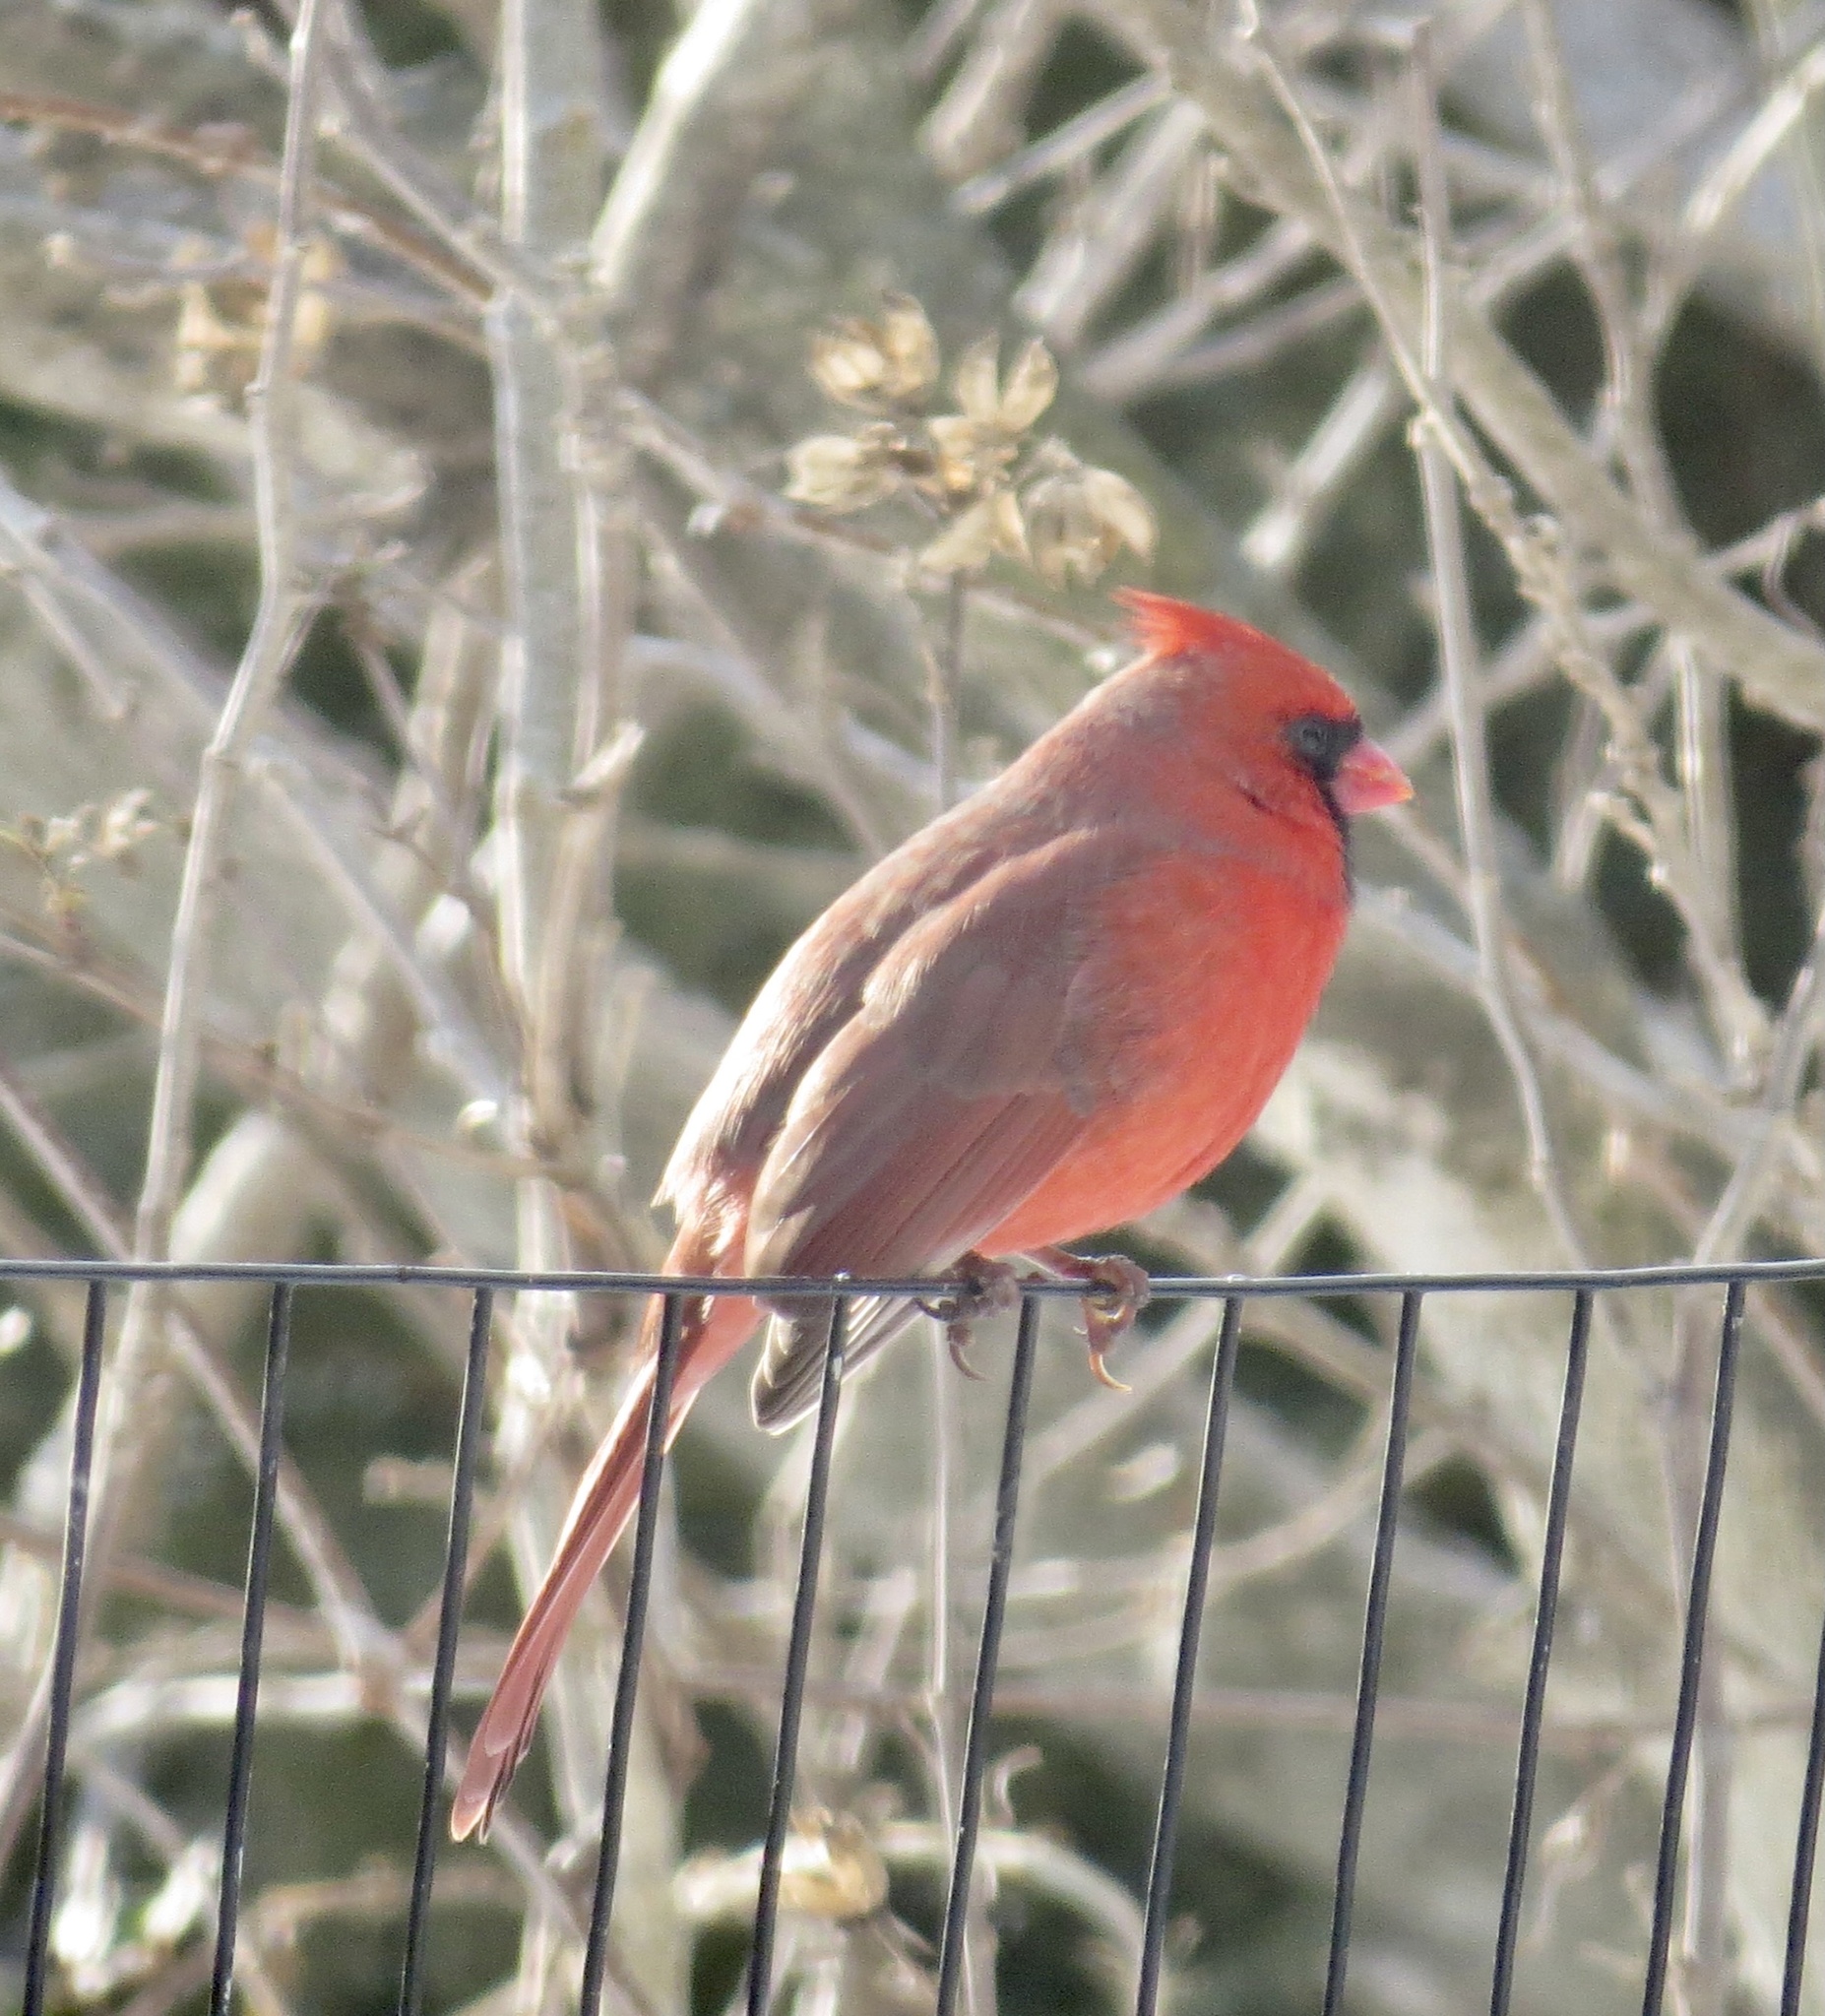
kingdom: Animalia
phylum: Chordata
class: Aves
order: Passeriformes
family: Cardinalidae
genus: Cardinalis
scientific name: Cardinalis cardinalis
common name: Northern cardinal
